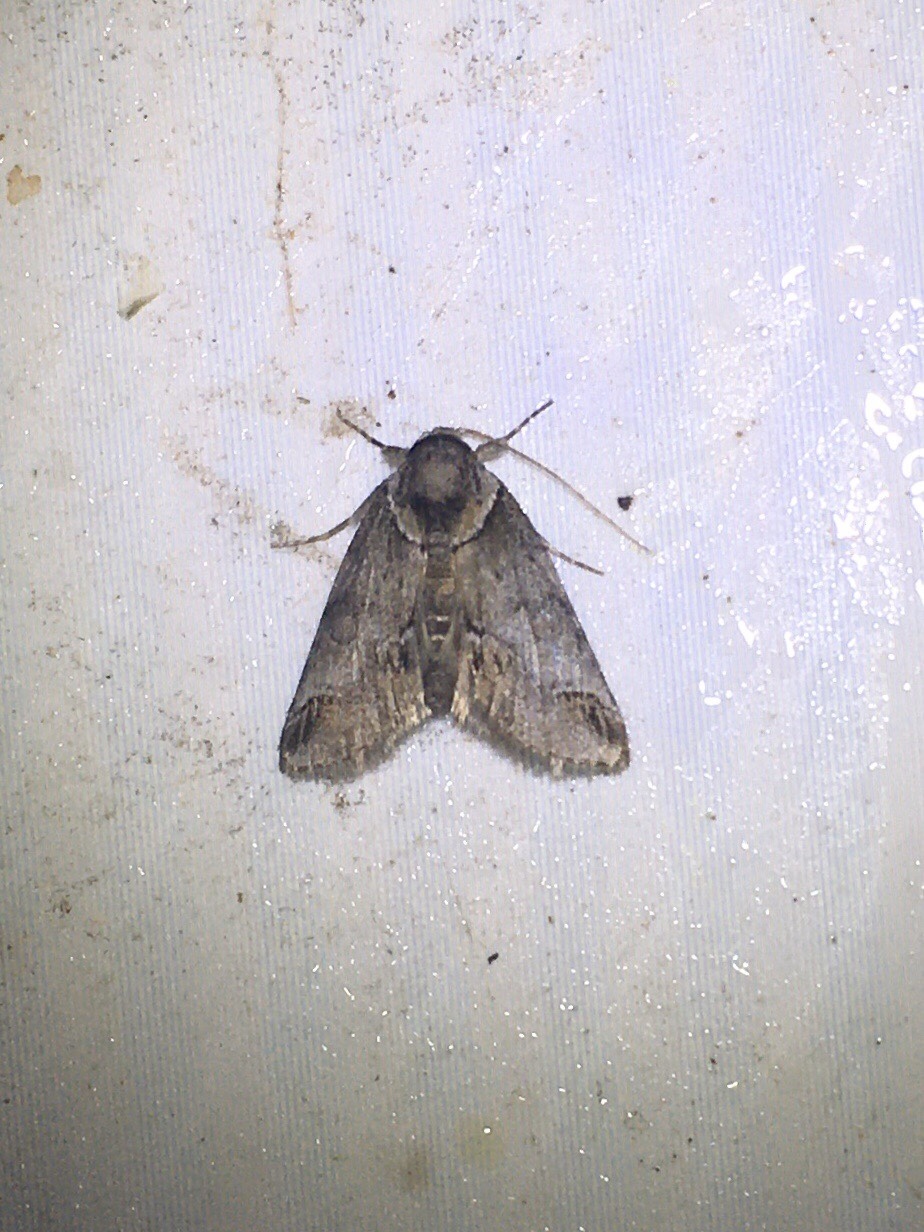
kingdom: Animalia
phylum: Arthropoda
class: Insecta
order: Lepidoptera
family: Nolidae
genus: Baileya
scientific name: Baileya australis
